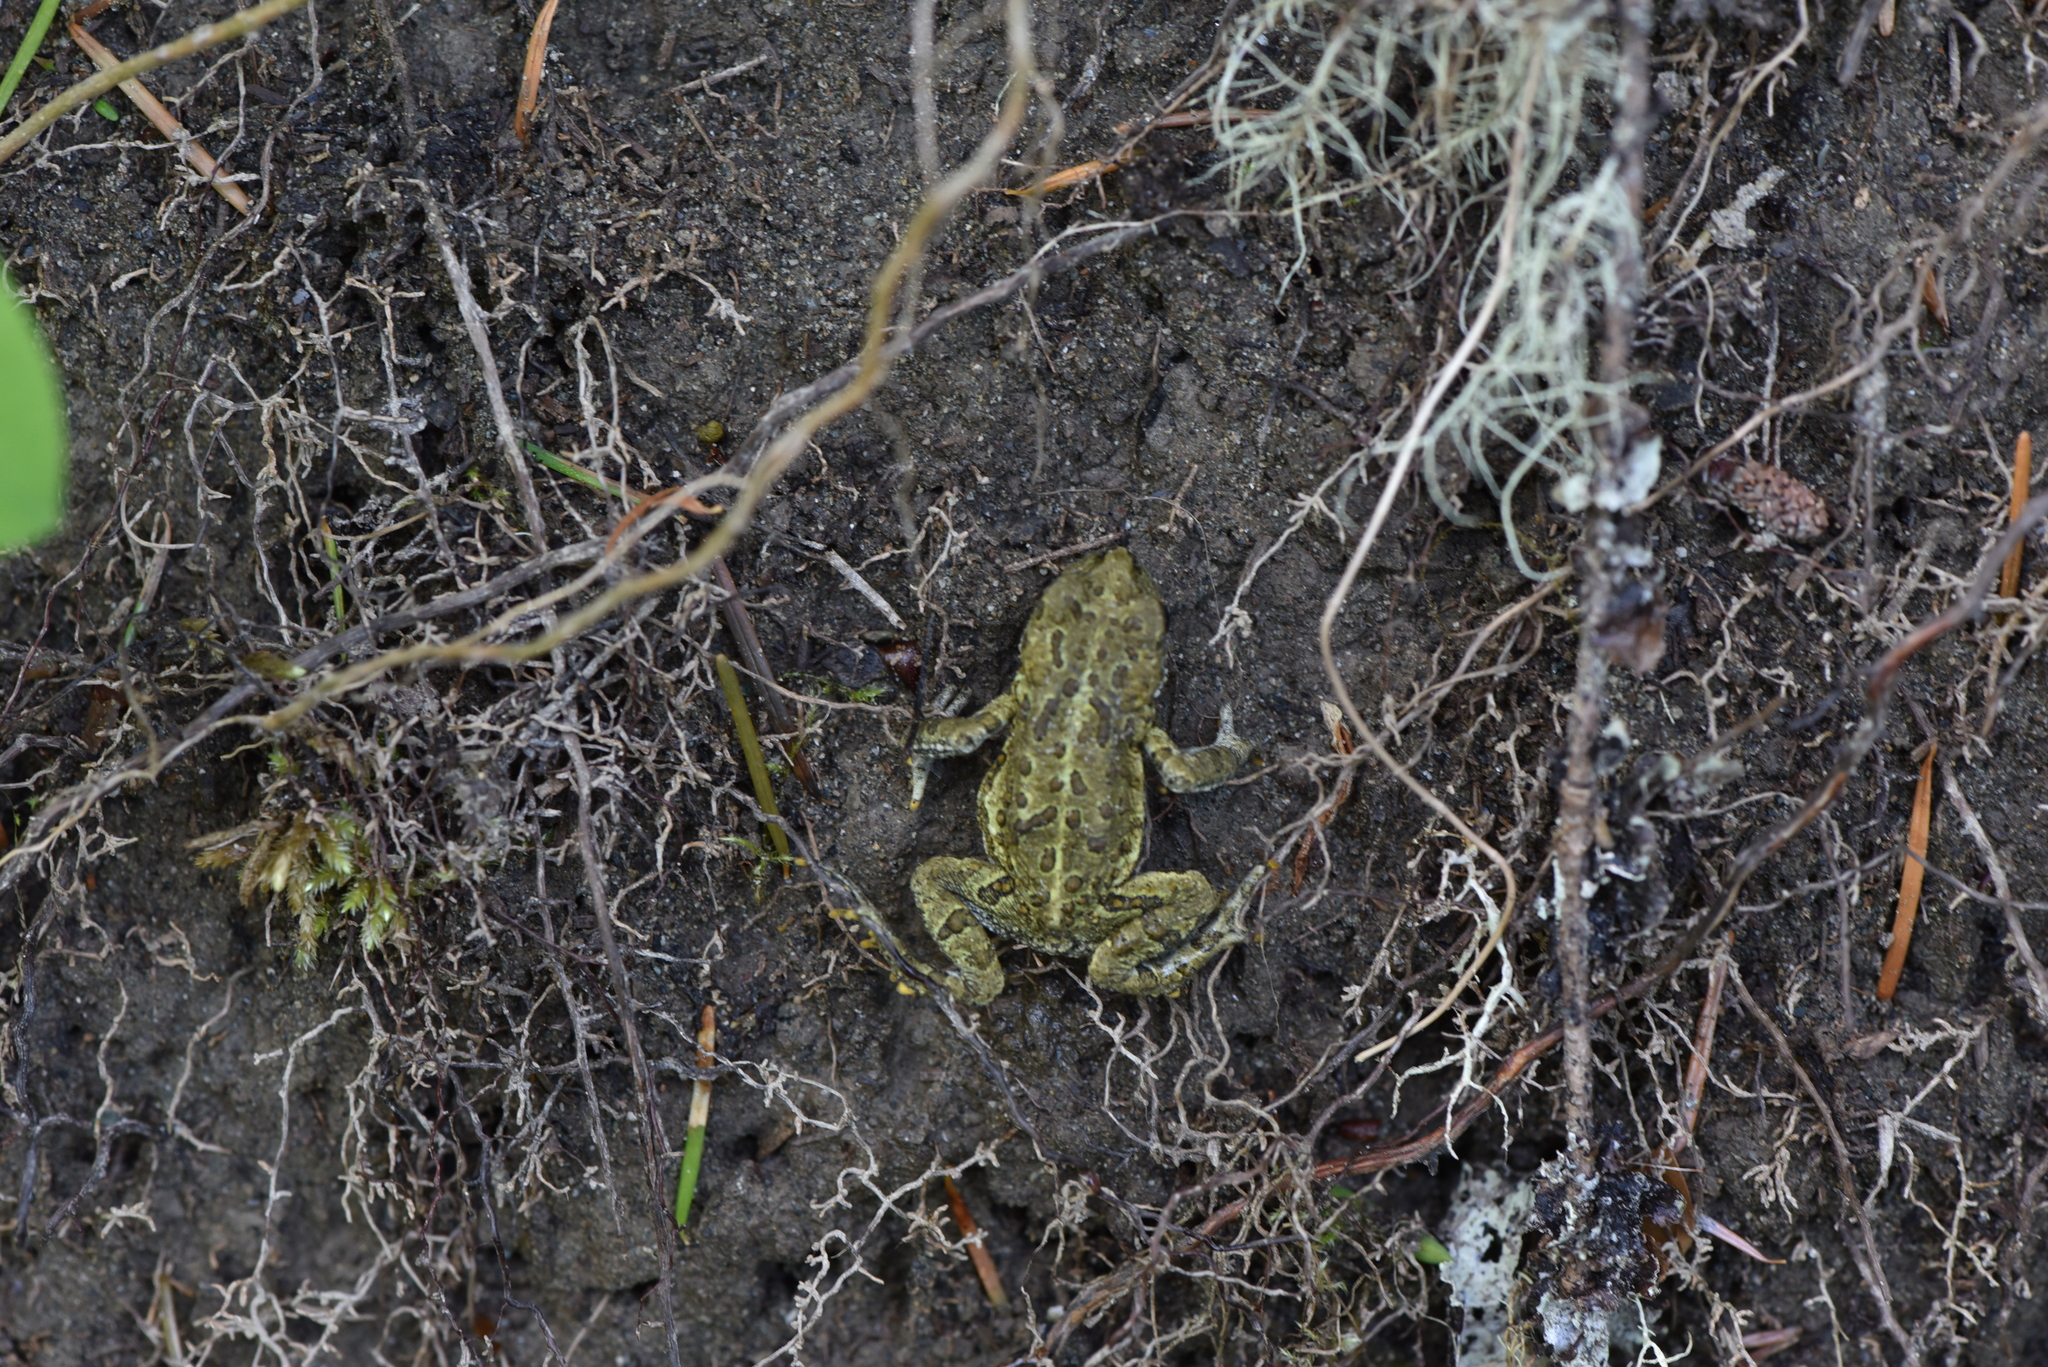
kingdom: Animalia
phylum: Chordata
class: Amphibia
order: Anura
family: Bufonidae
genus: Anaxyrus
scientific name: Anaxyrus boreas
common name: Western toad
